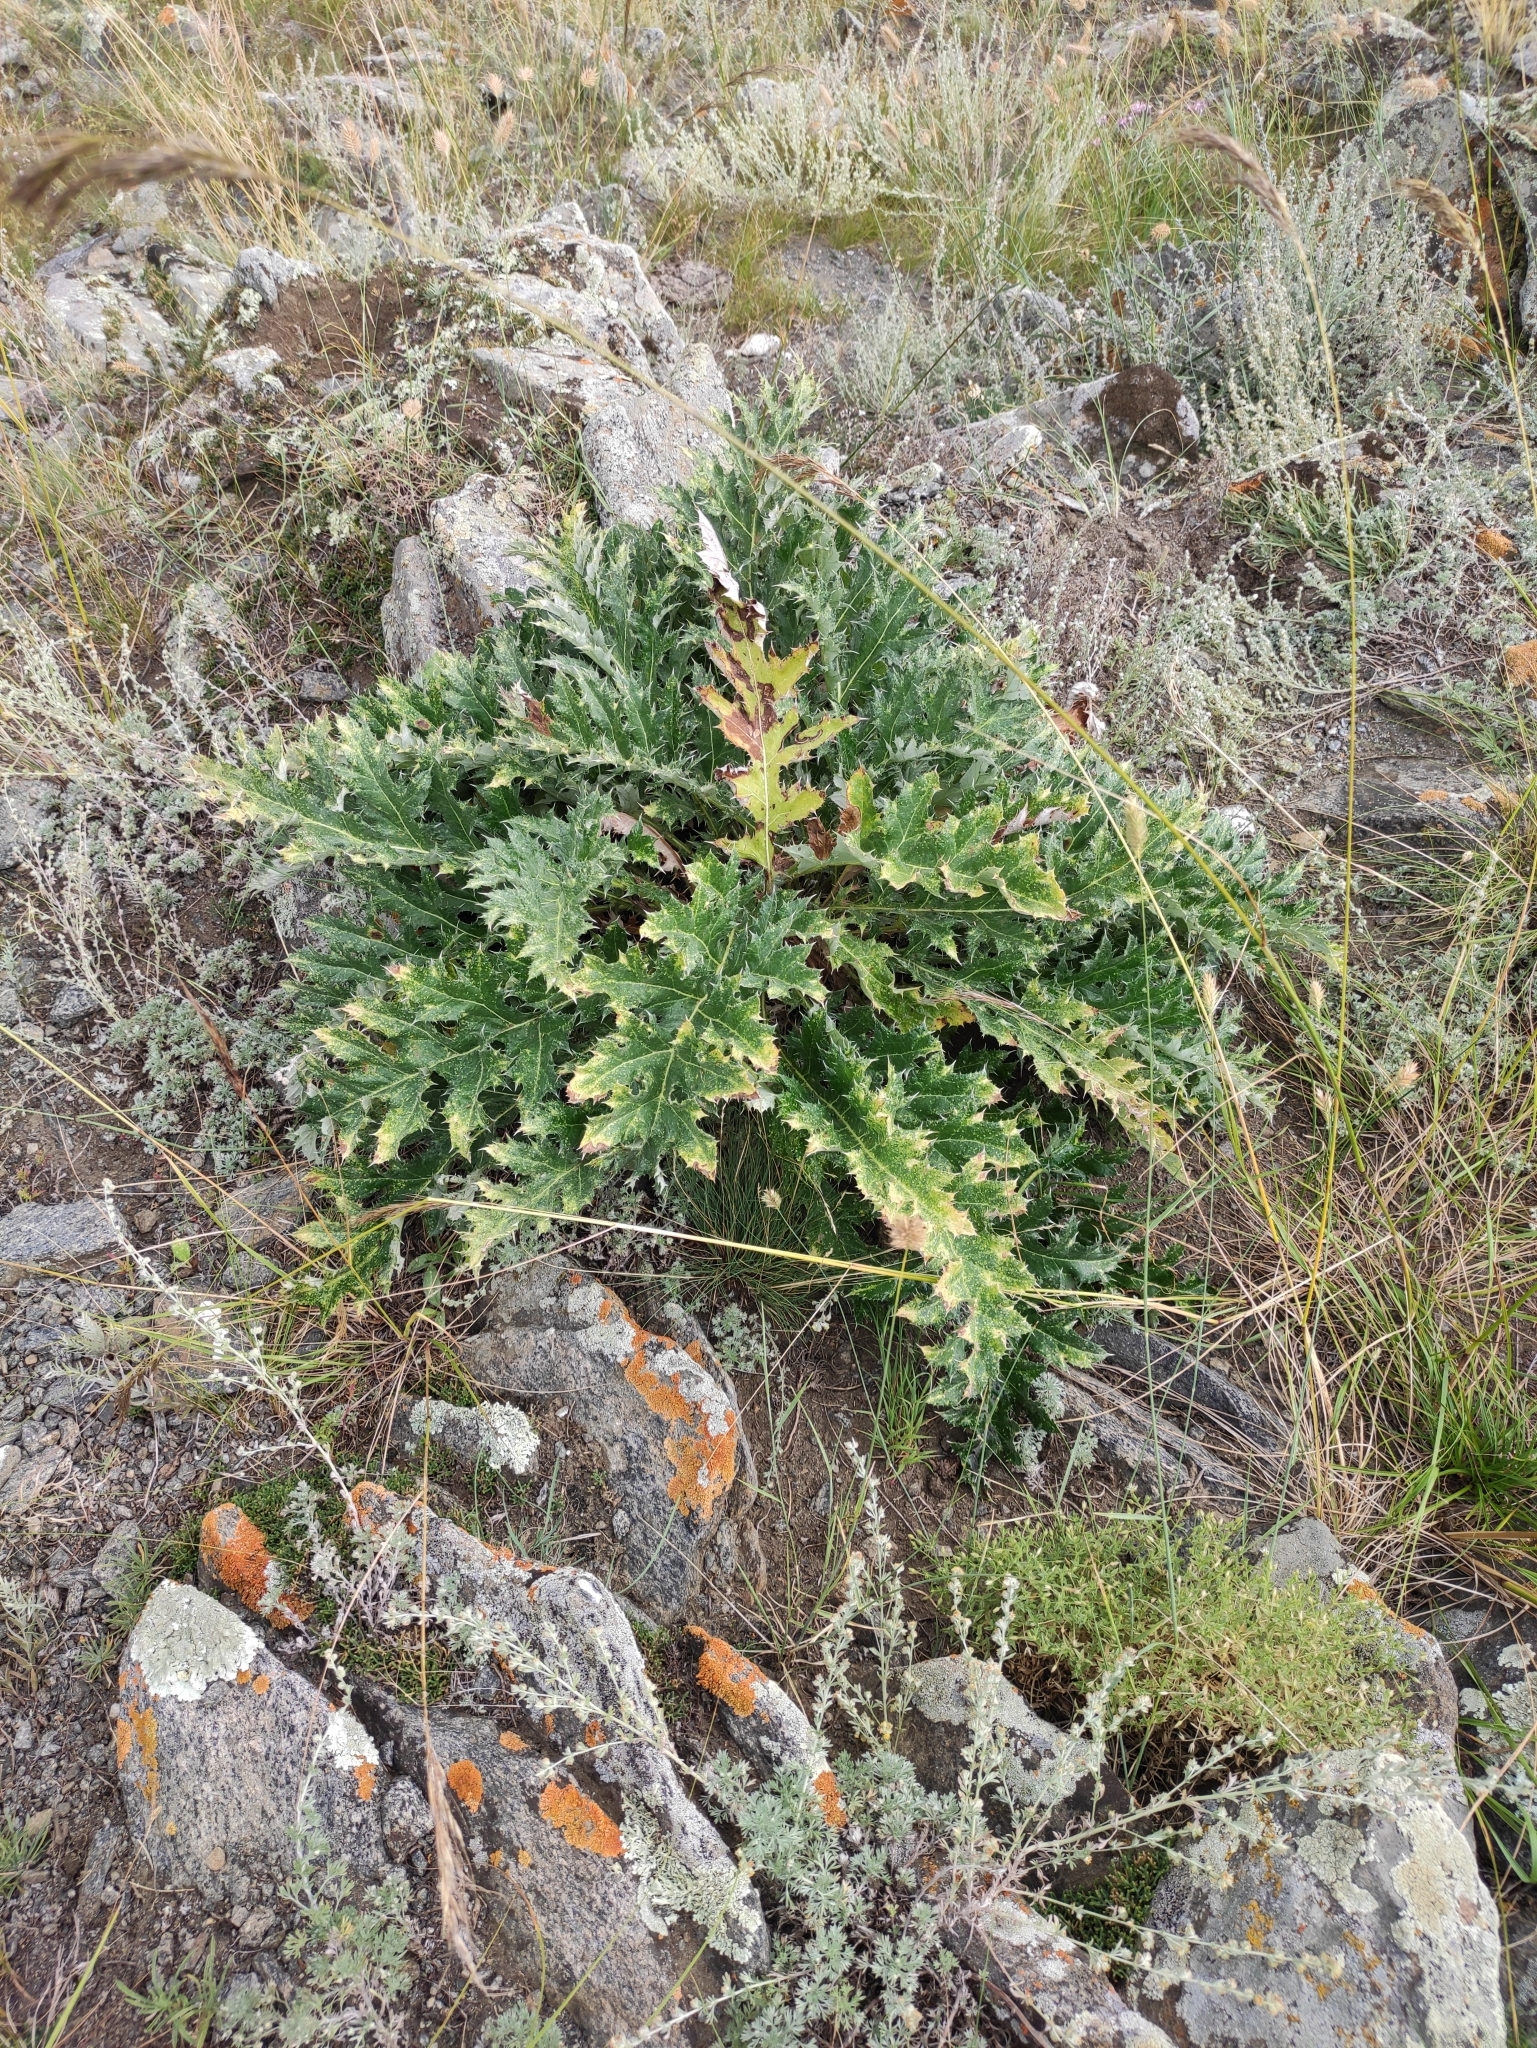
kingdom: Plantae
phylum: Tracheophyta
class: Magnoliopsida
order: Asterales
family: Asteraceae
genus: Echinops
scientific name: Echinops davuricus
